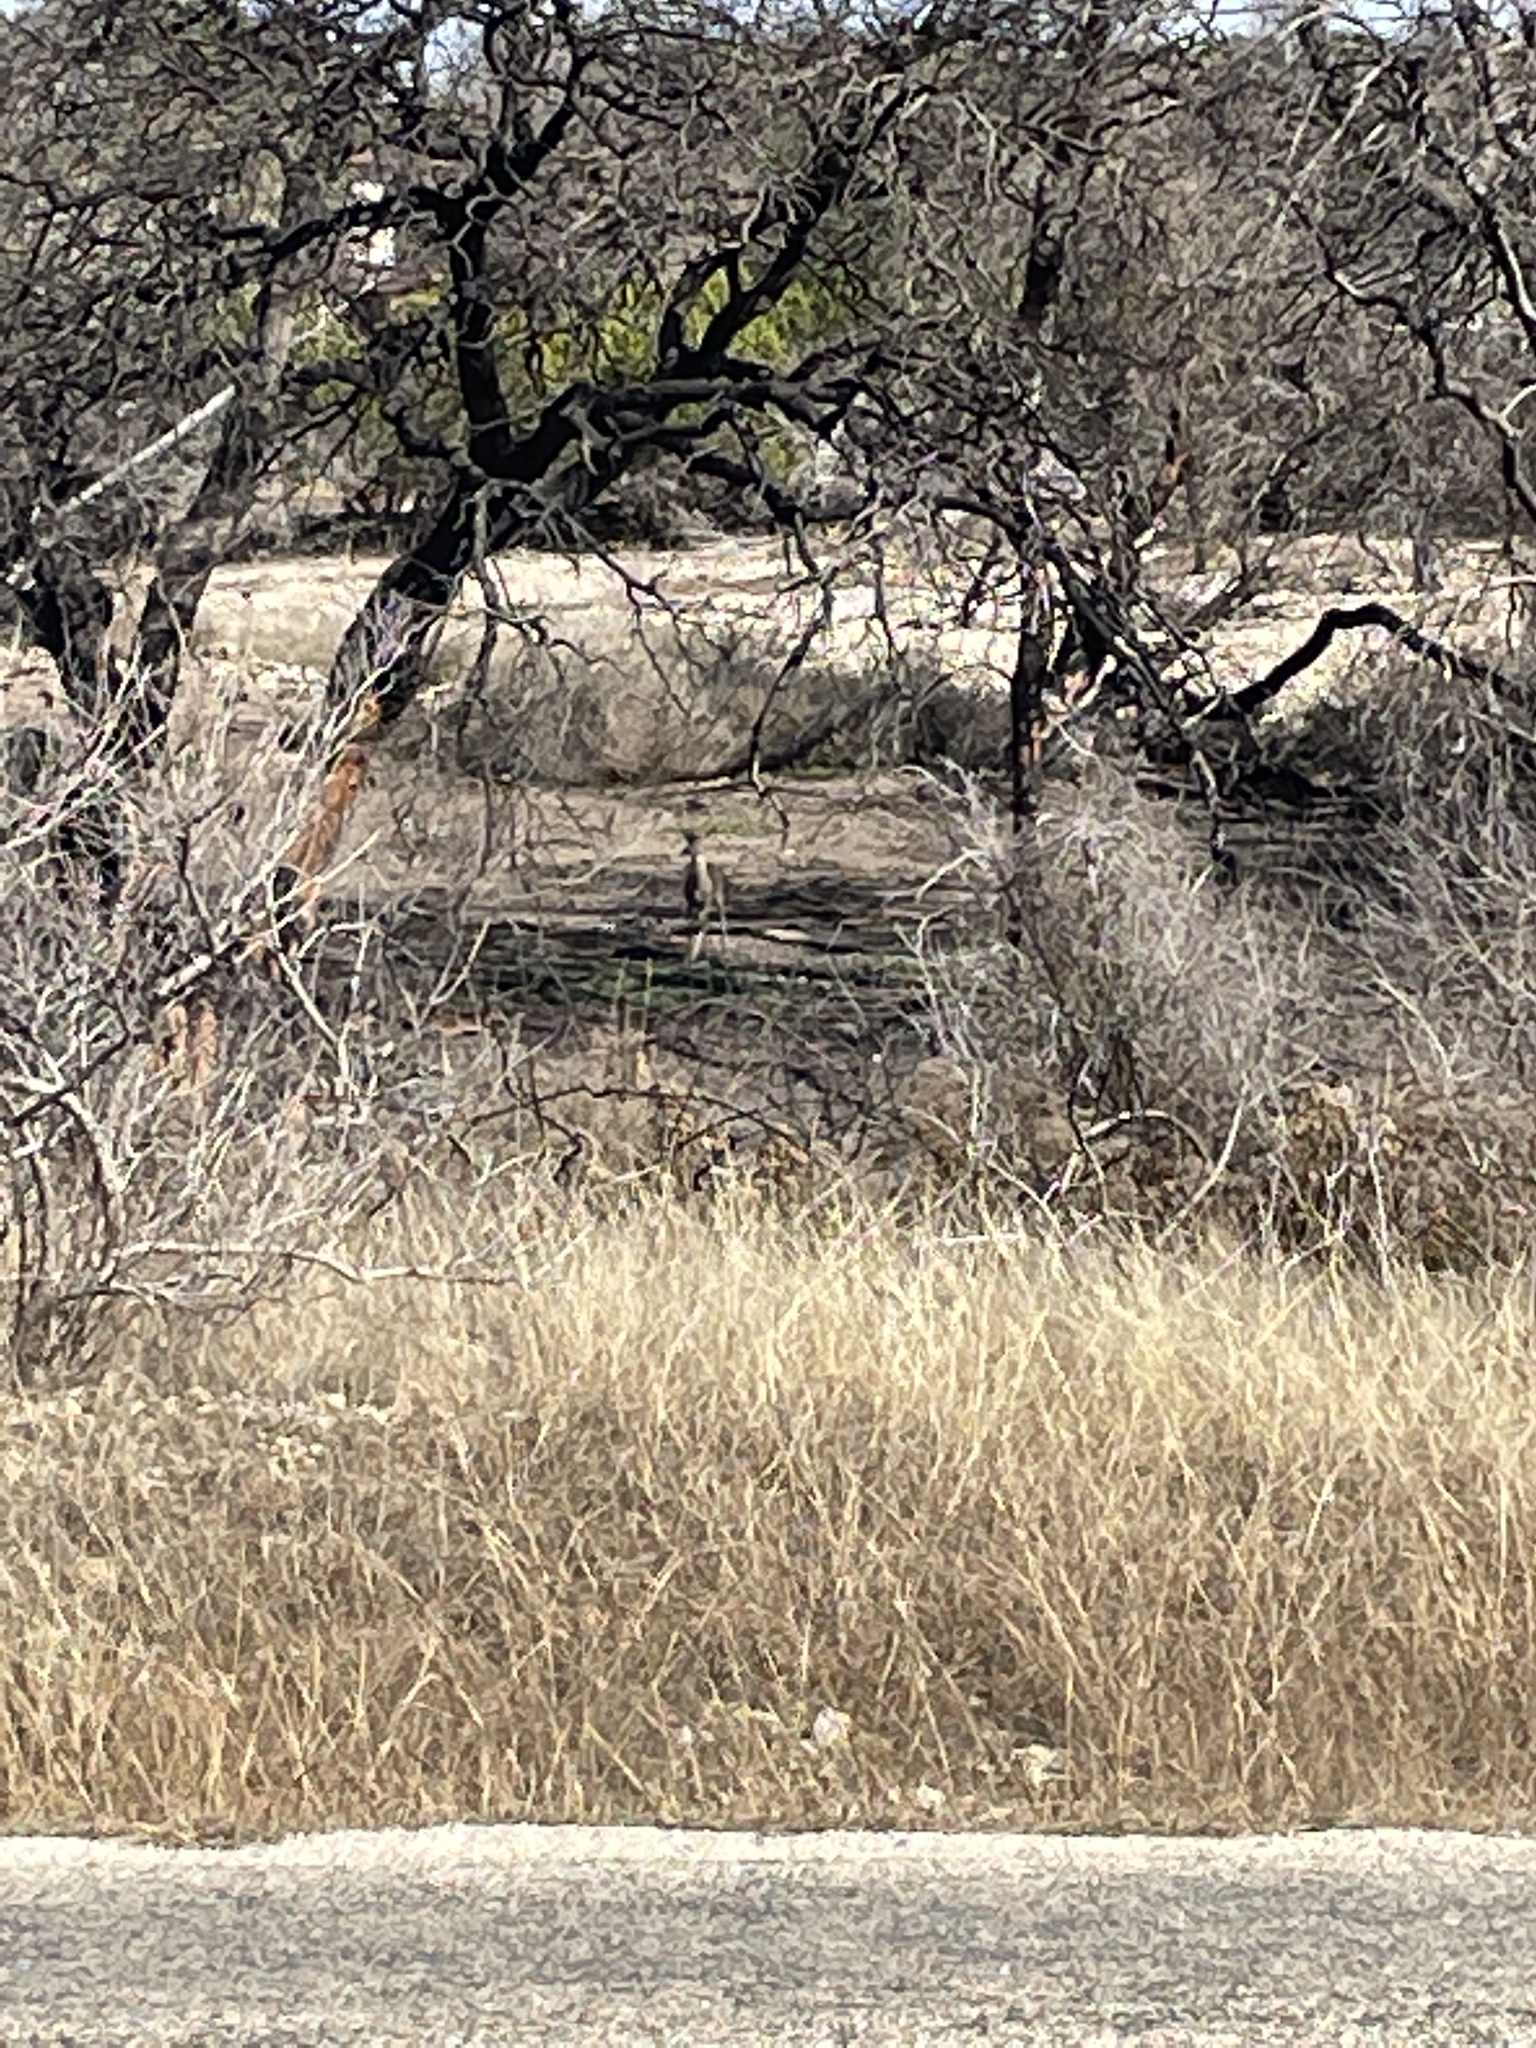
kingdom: Animalia
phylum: Chordata
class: Mammalia
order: Artiodactyla
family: Cervidae
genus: Odocoileus
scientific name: Odocoileus virginianus
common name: White-tailed deer
